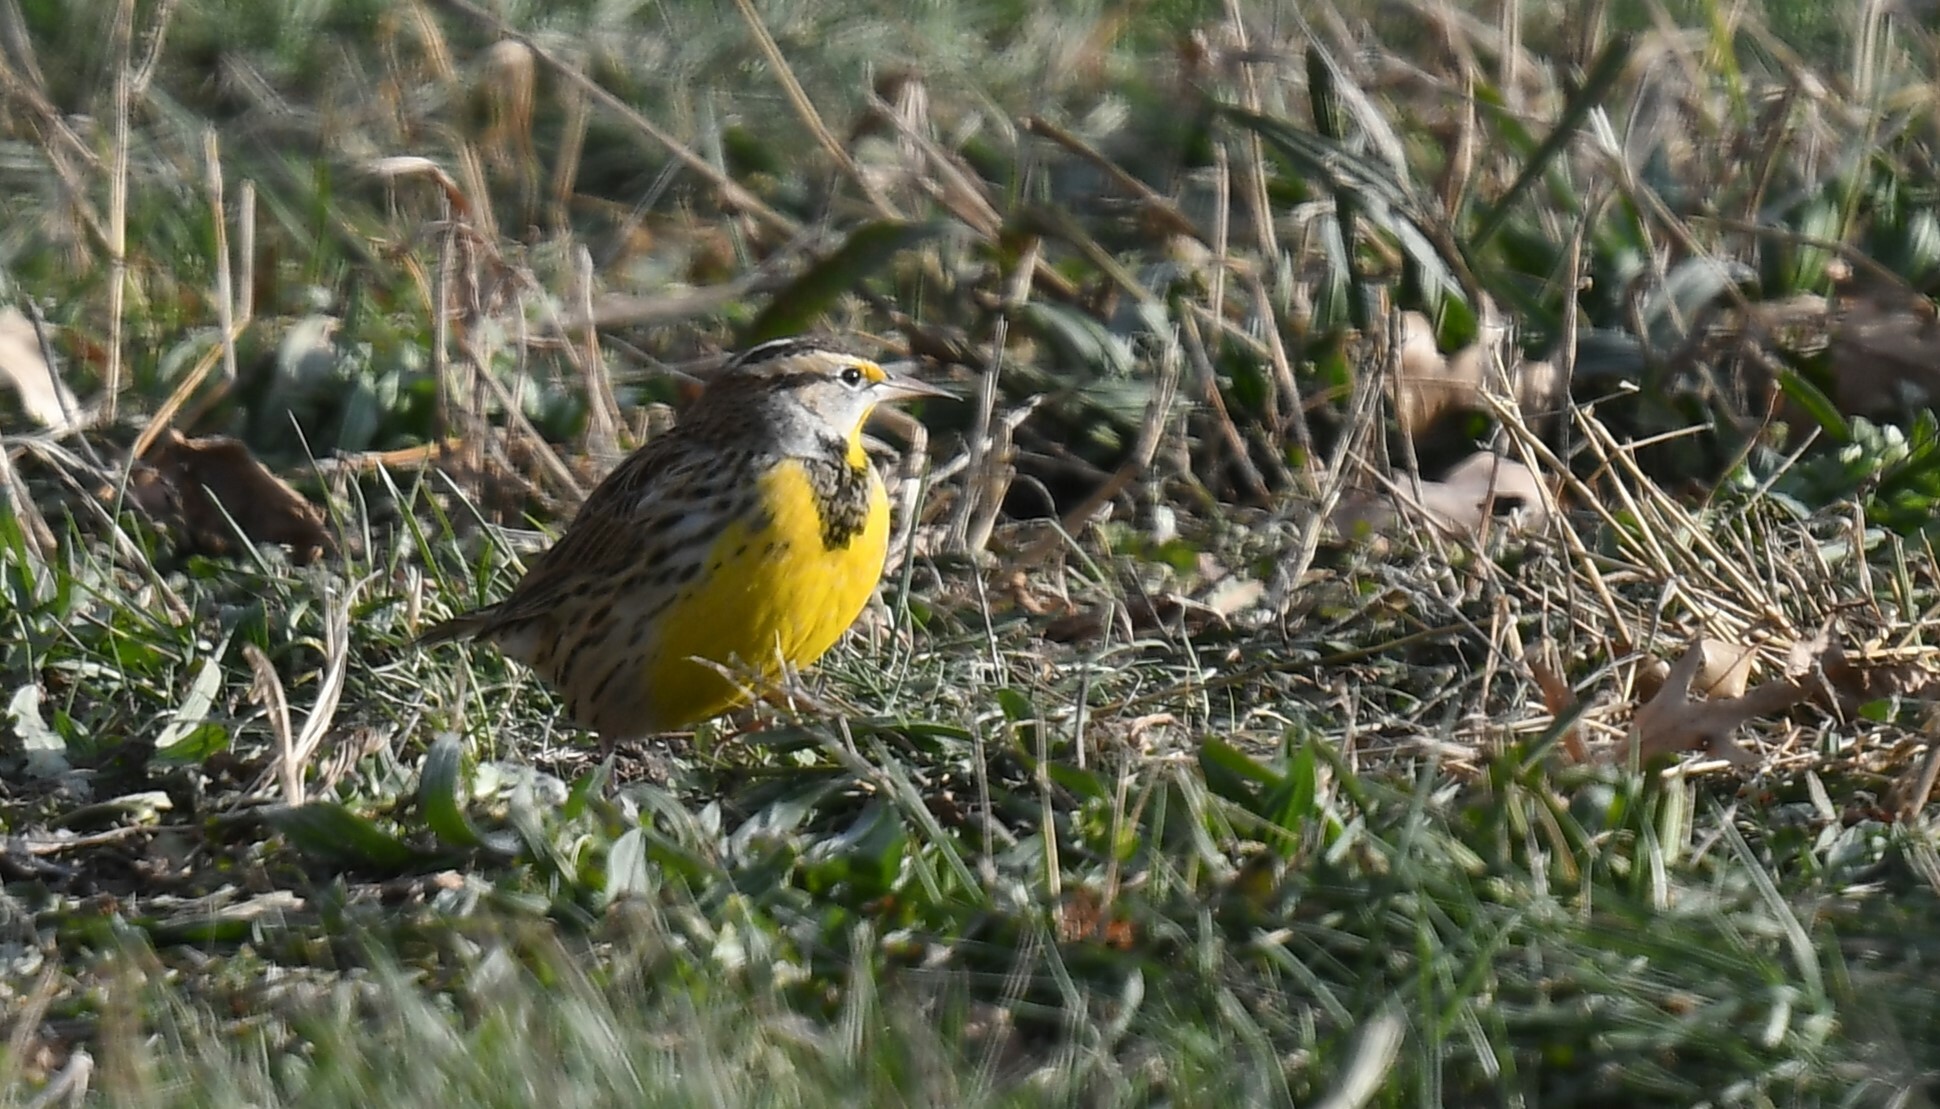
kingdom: Animalia
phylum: Chordata
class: Aves
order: Passeriformes
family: Icteridae
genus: Sturnella
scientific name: Sturnella neglecta
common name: Western meadowlark
